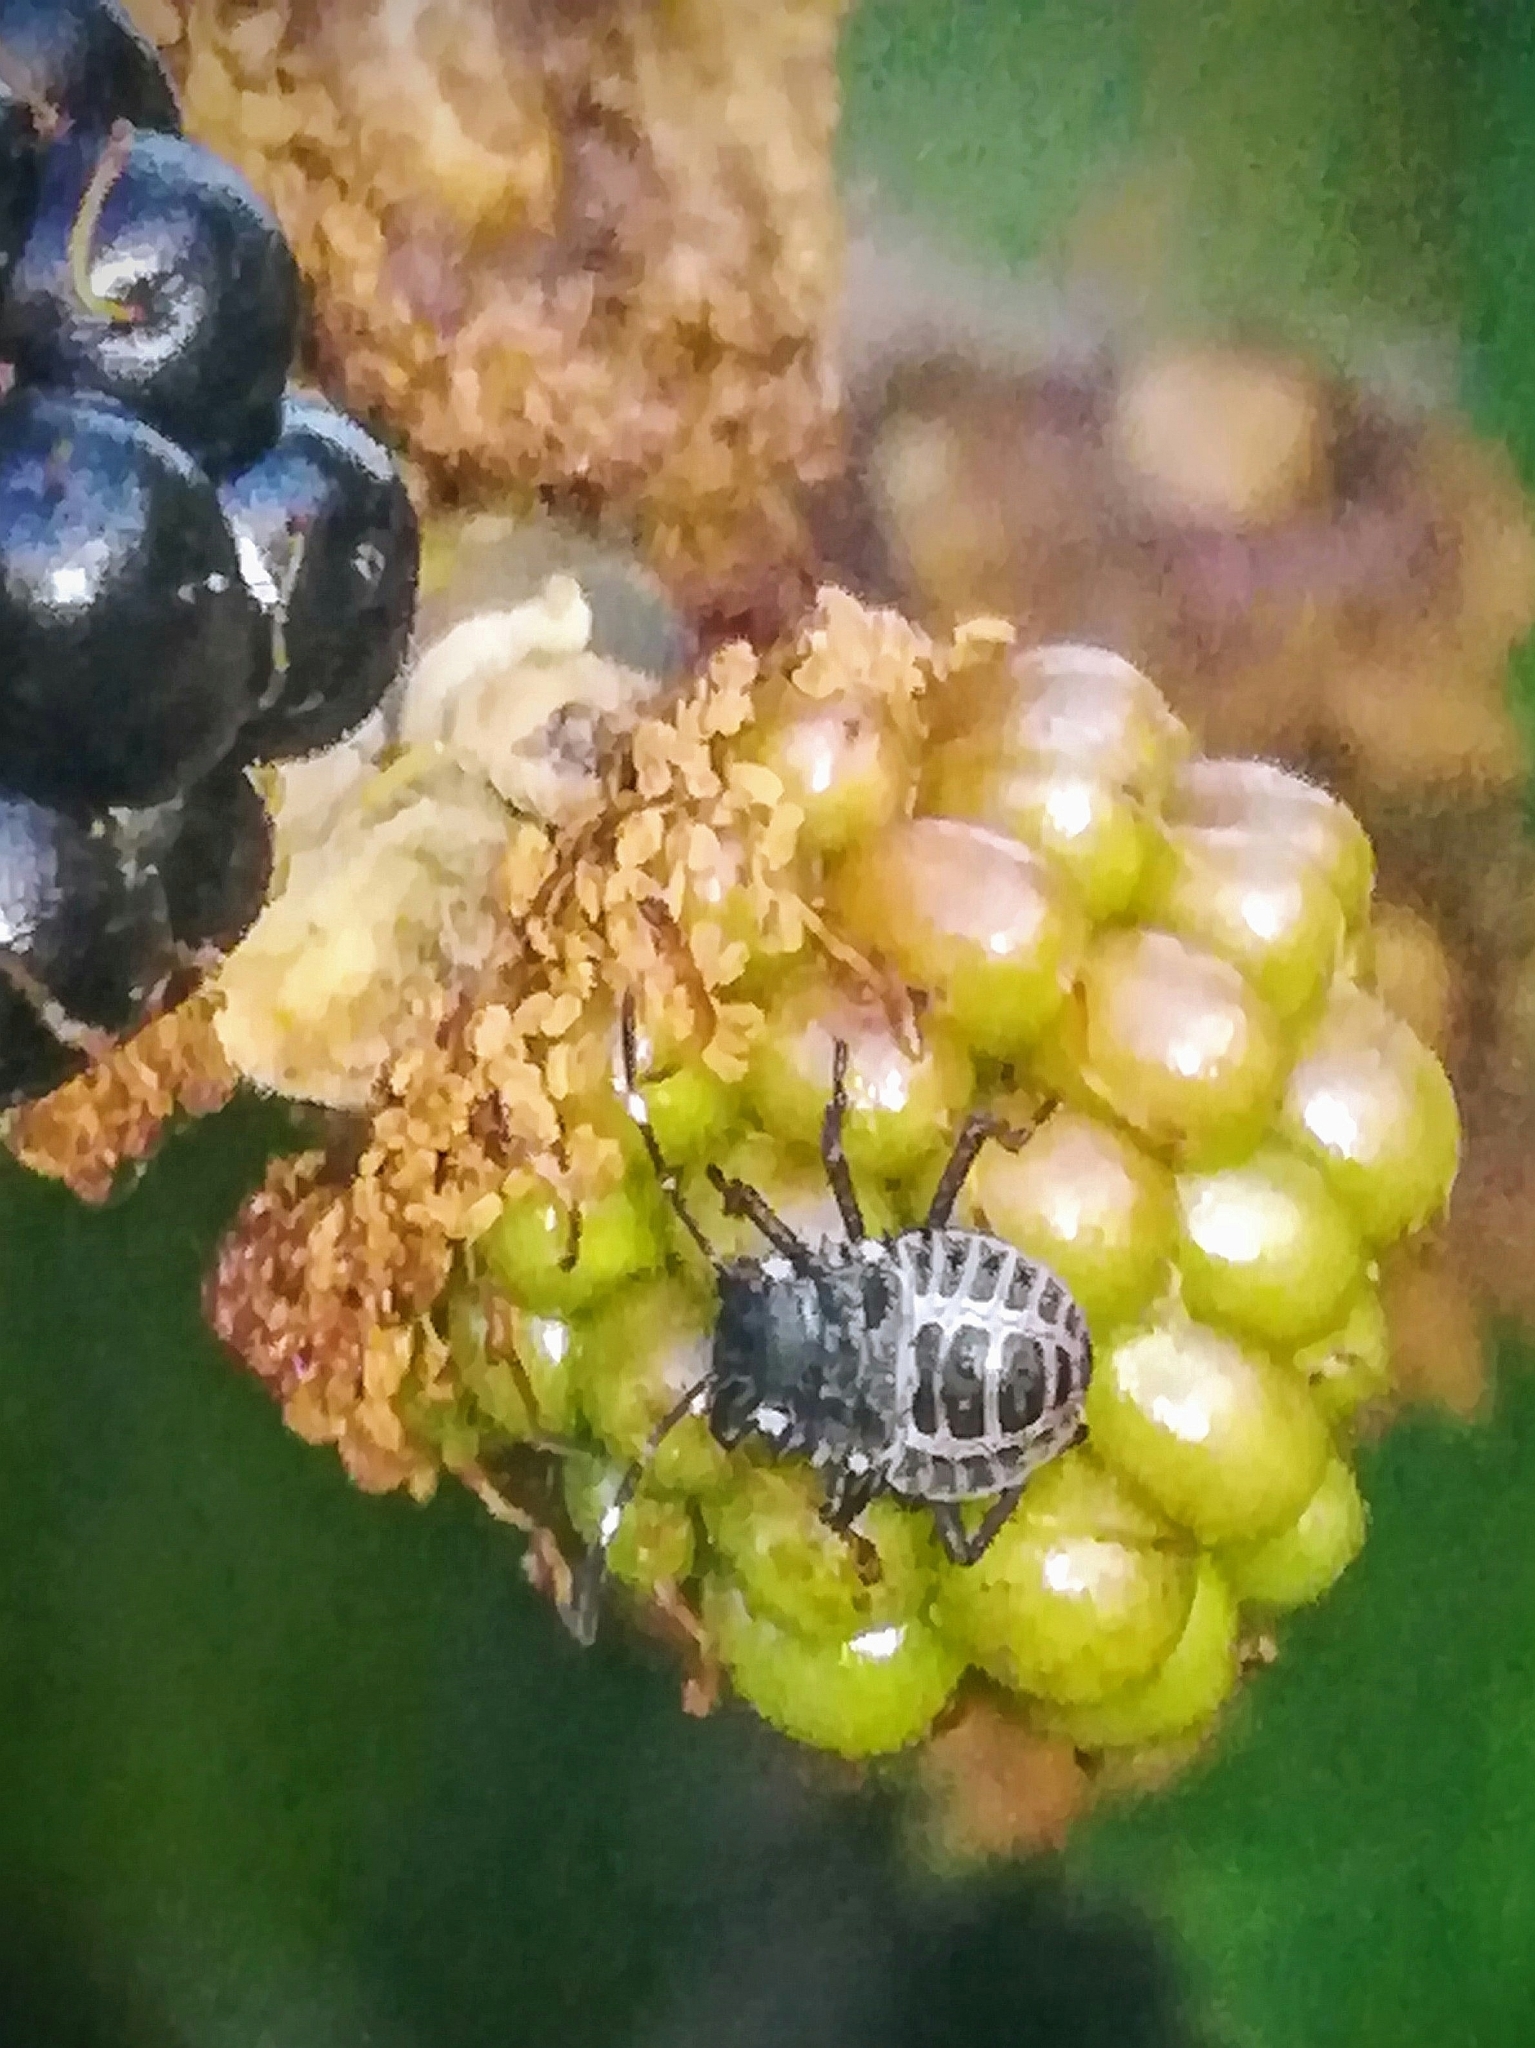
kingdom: Animalia
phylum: Arthropoda
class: Insecta
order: Hemiptera
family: Pentatomidae
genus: Halyomorpha
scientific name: Halyomorpha halys
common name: Brown marmorated stink bug
